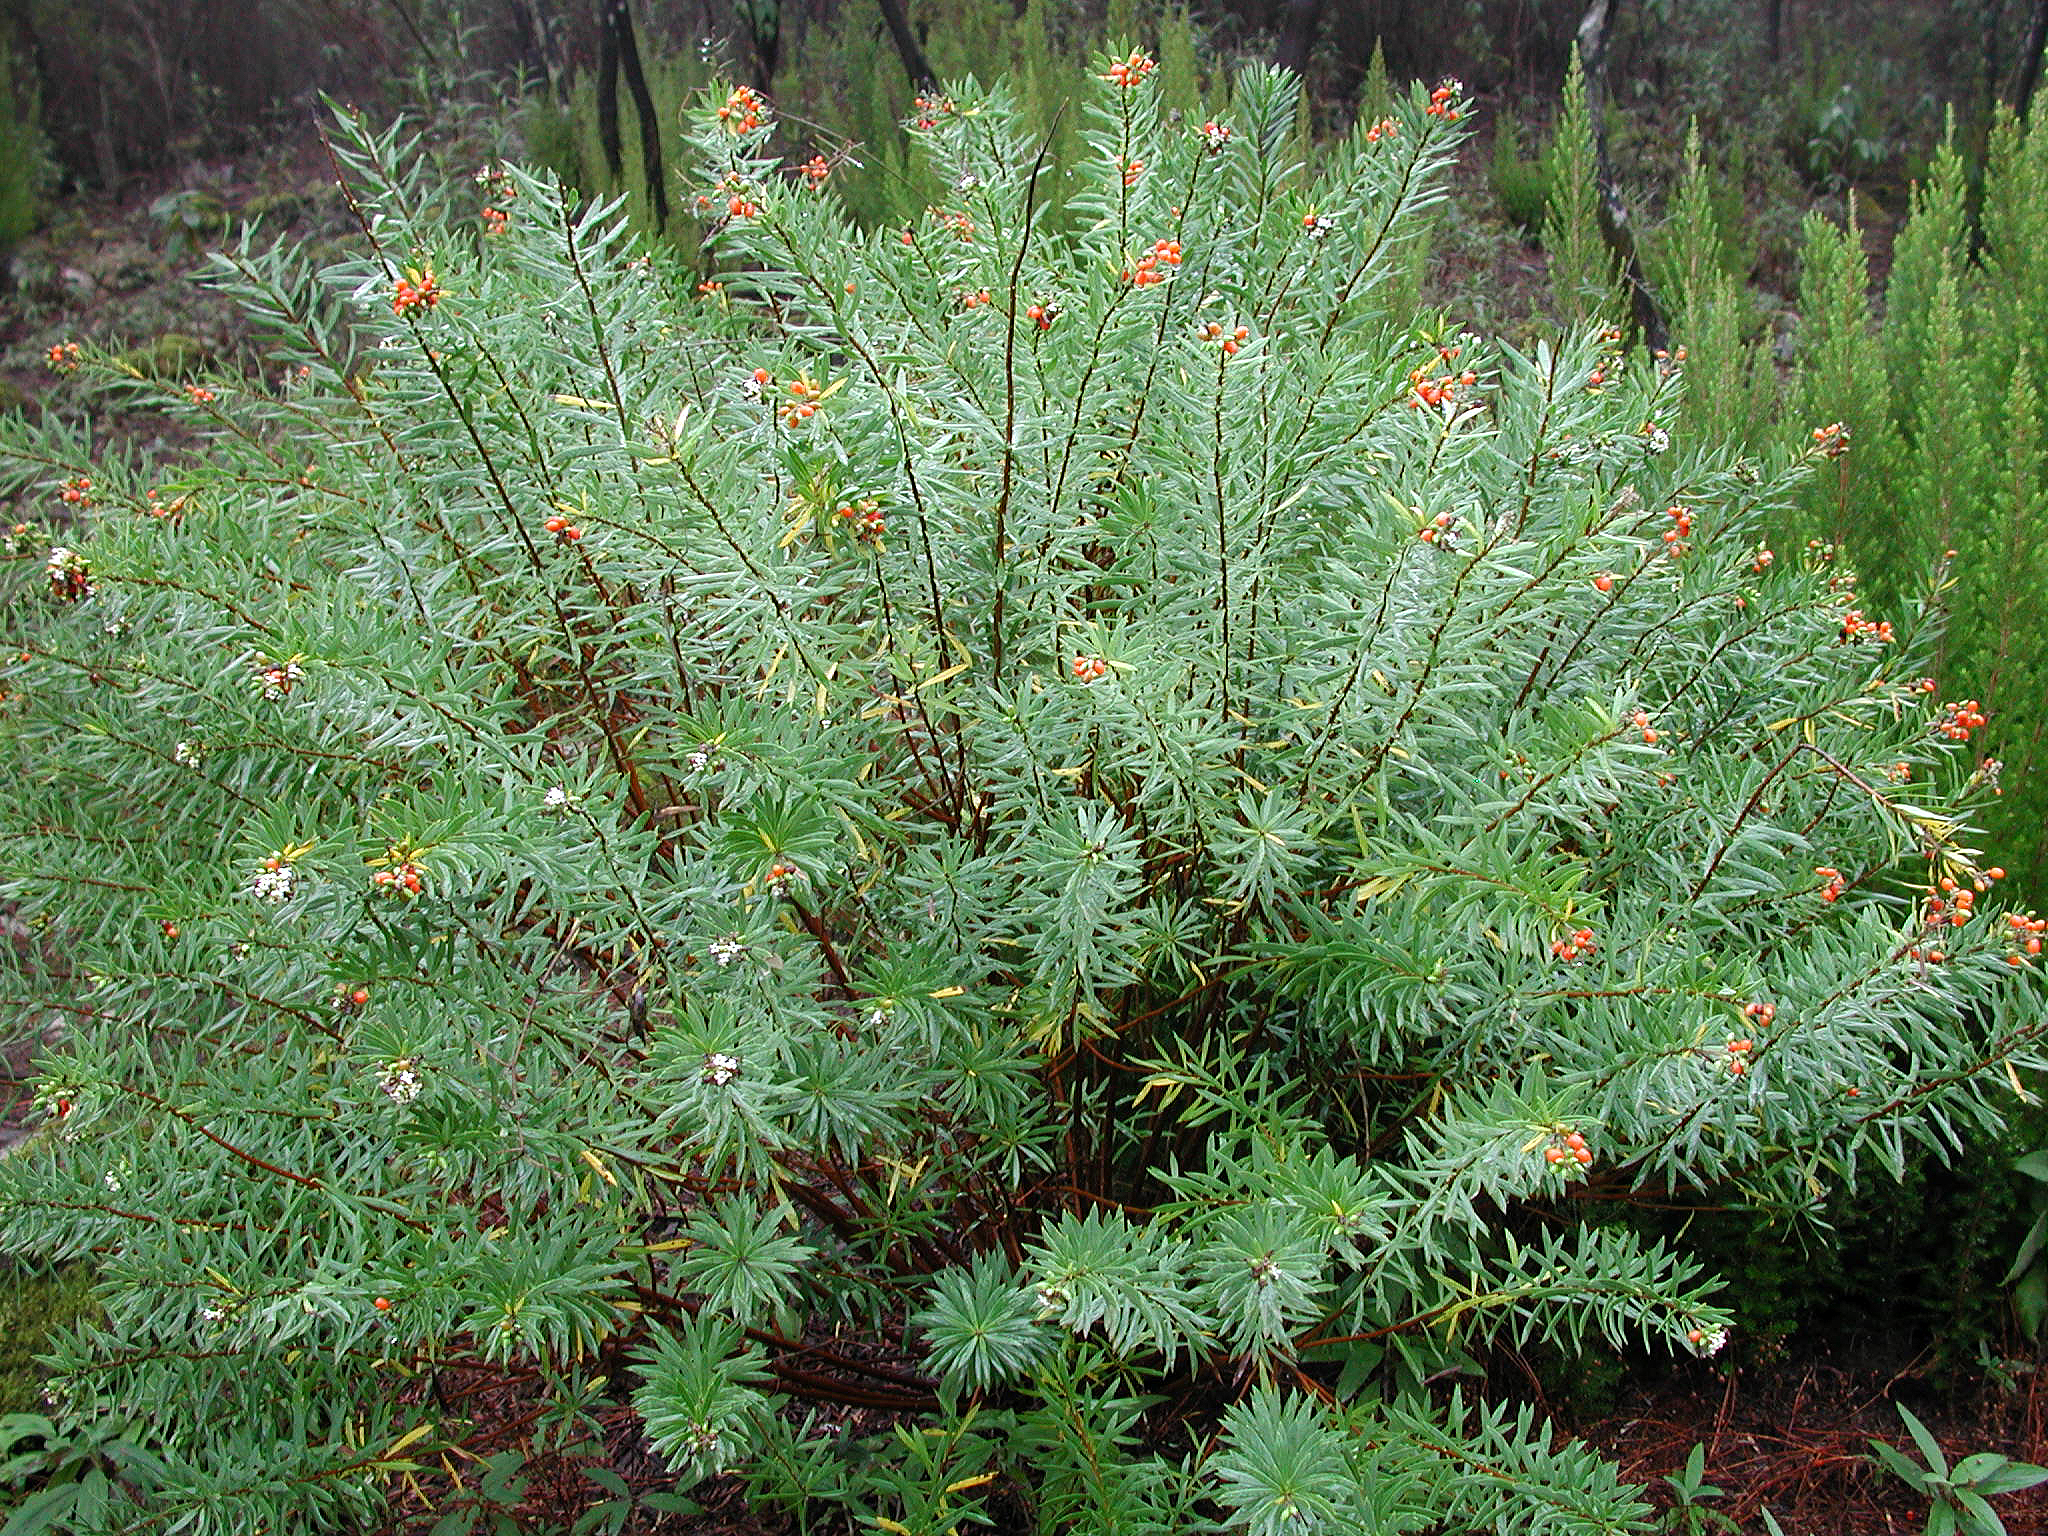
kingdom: Plantae
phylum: Tracheophyta
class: Magnoliopsida
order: Malvales
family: Thymelaeaceae
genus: Daphne
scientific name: Daphne gnidium
